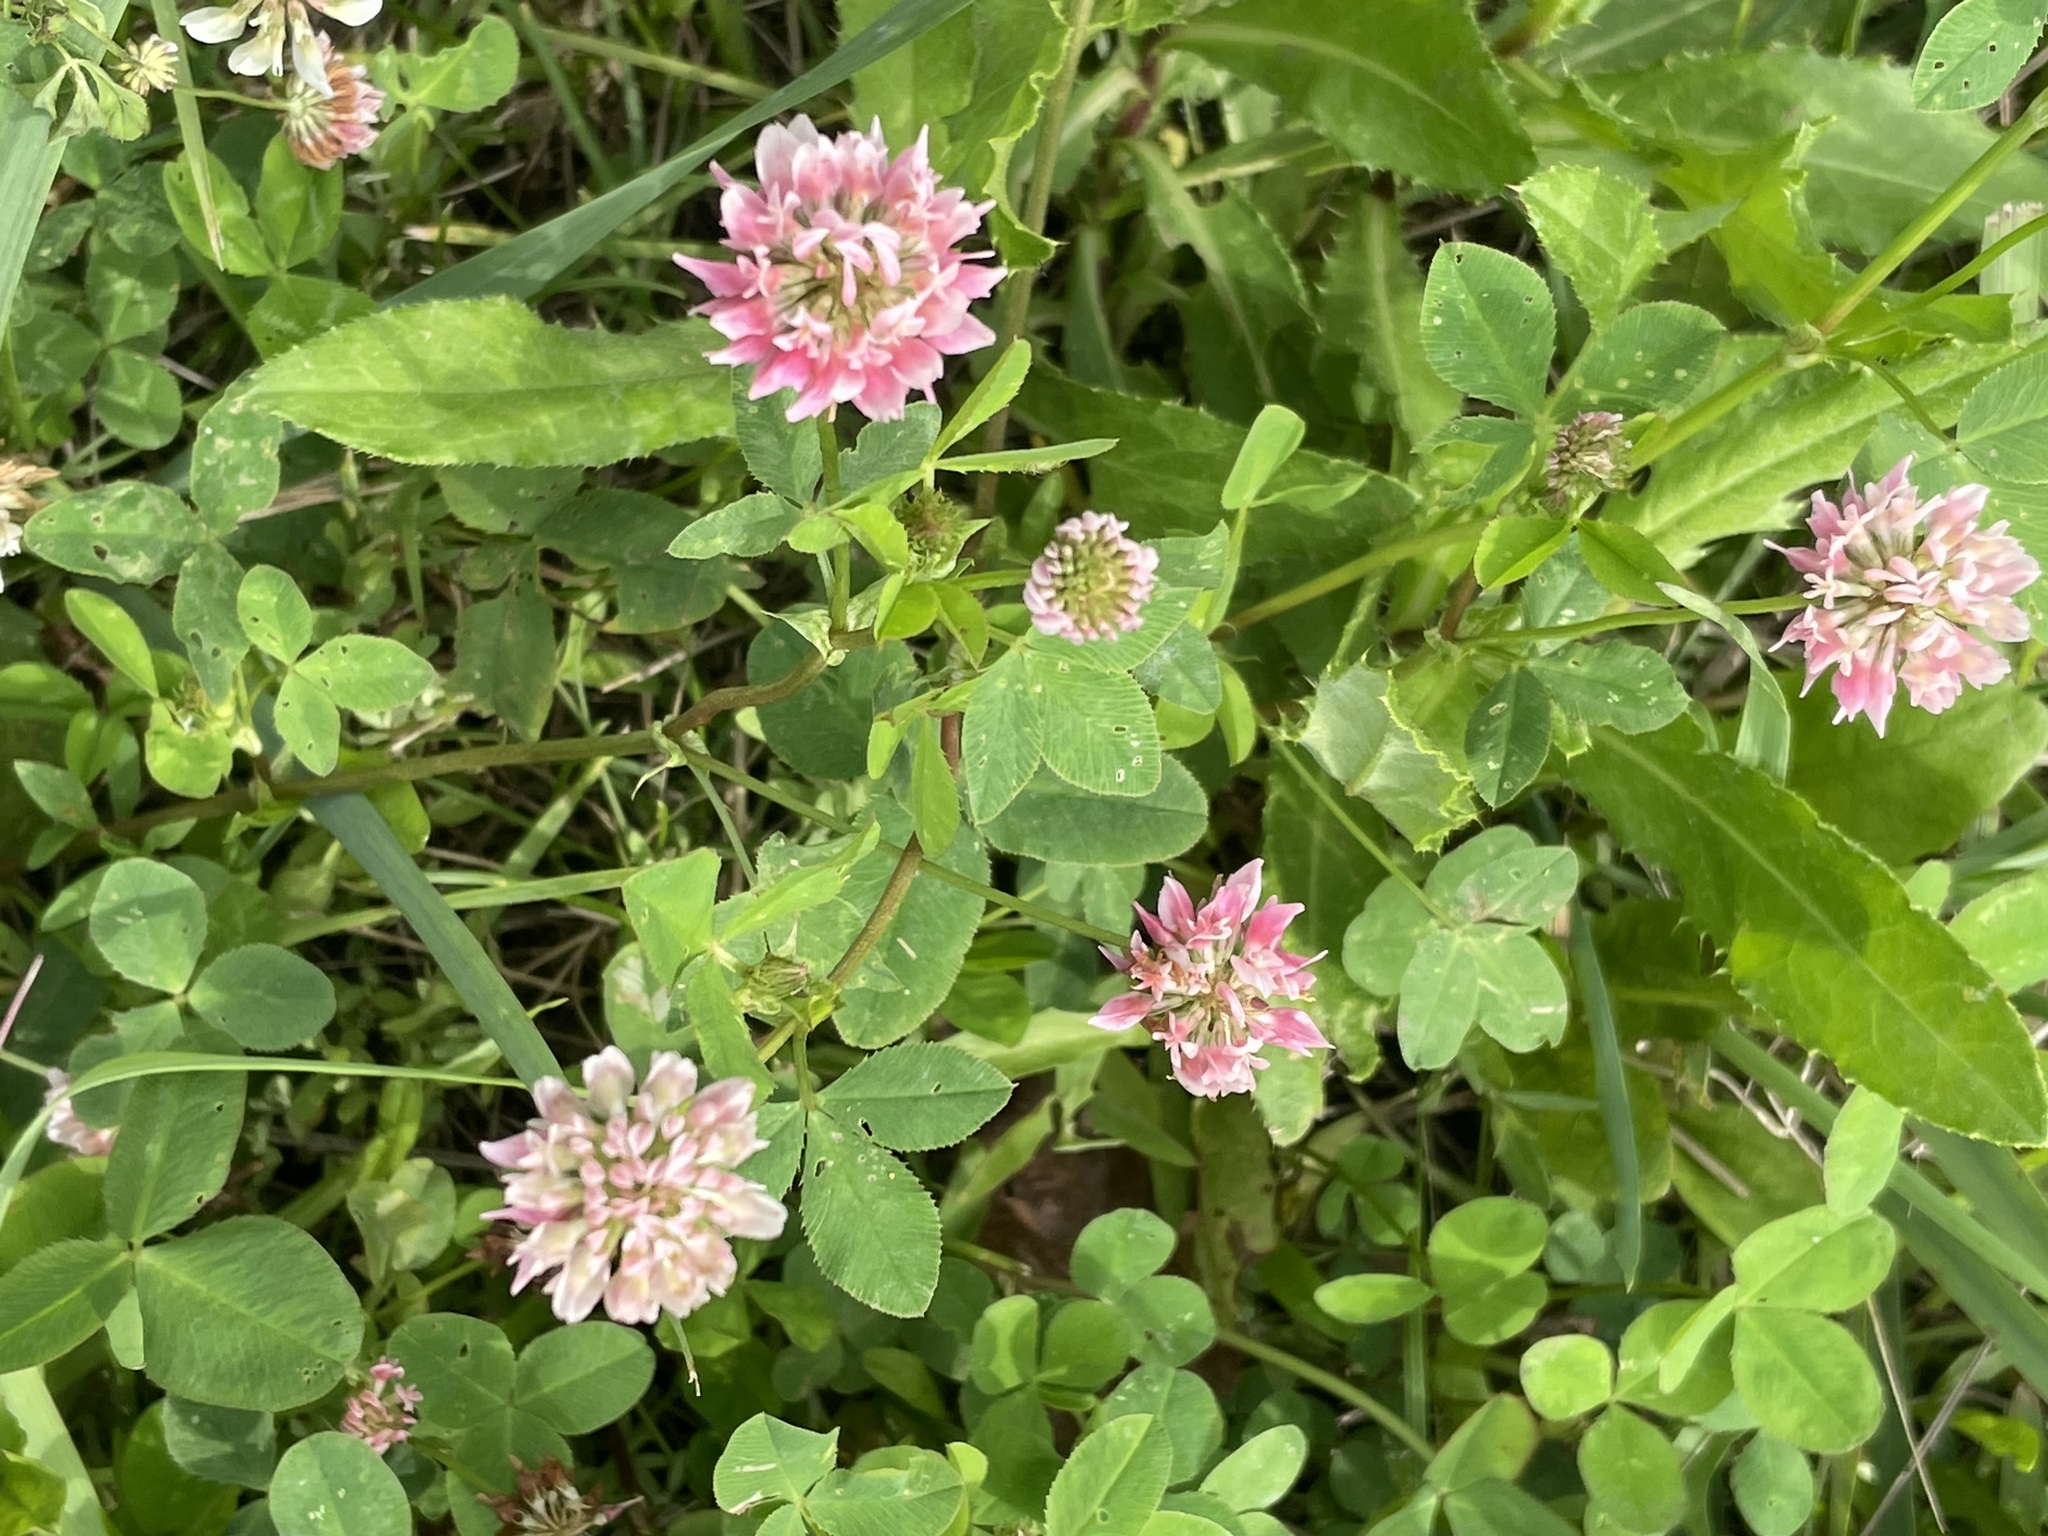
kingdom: Plantae
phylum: Tracheophyta
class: Magnoliopsida
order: Fabales
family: Fabaceae
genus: Trifolium
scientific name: Trifolium hybridum
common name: Alsike clover
